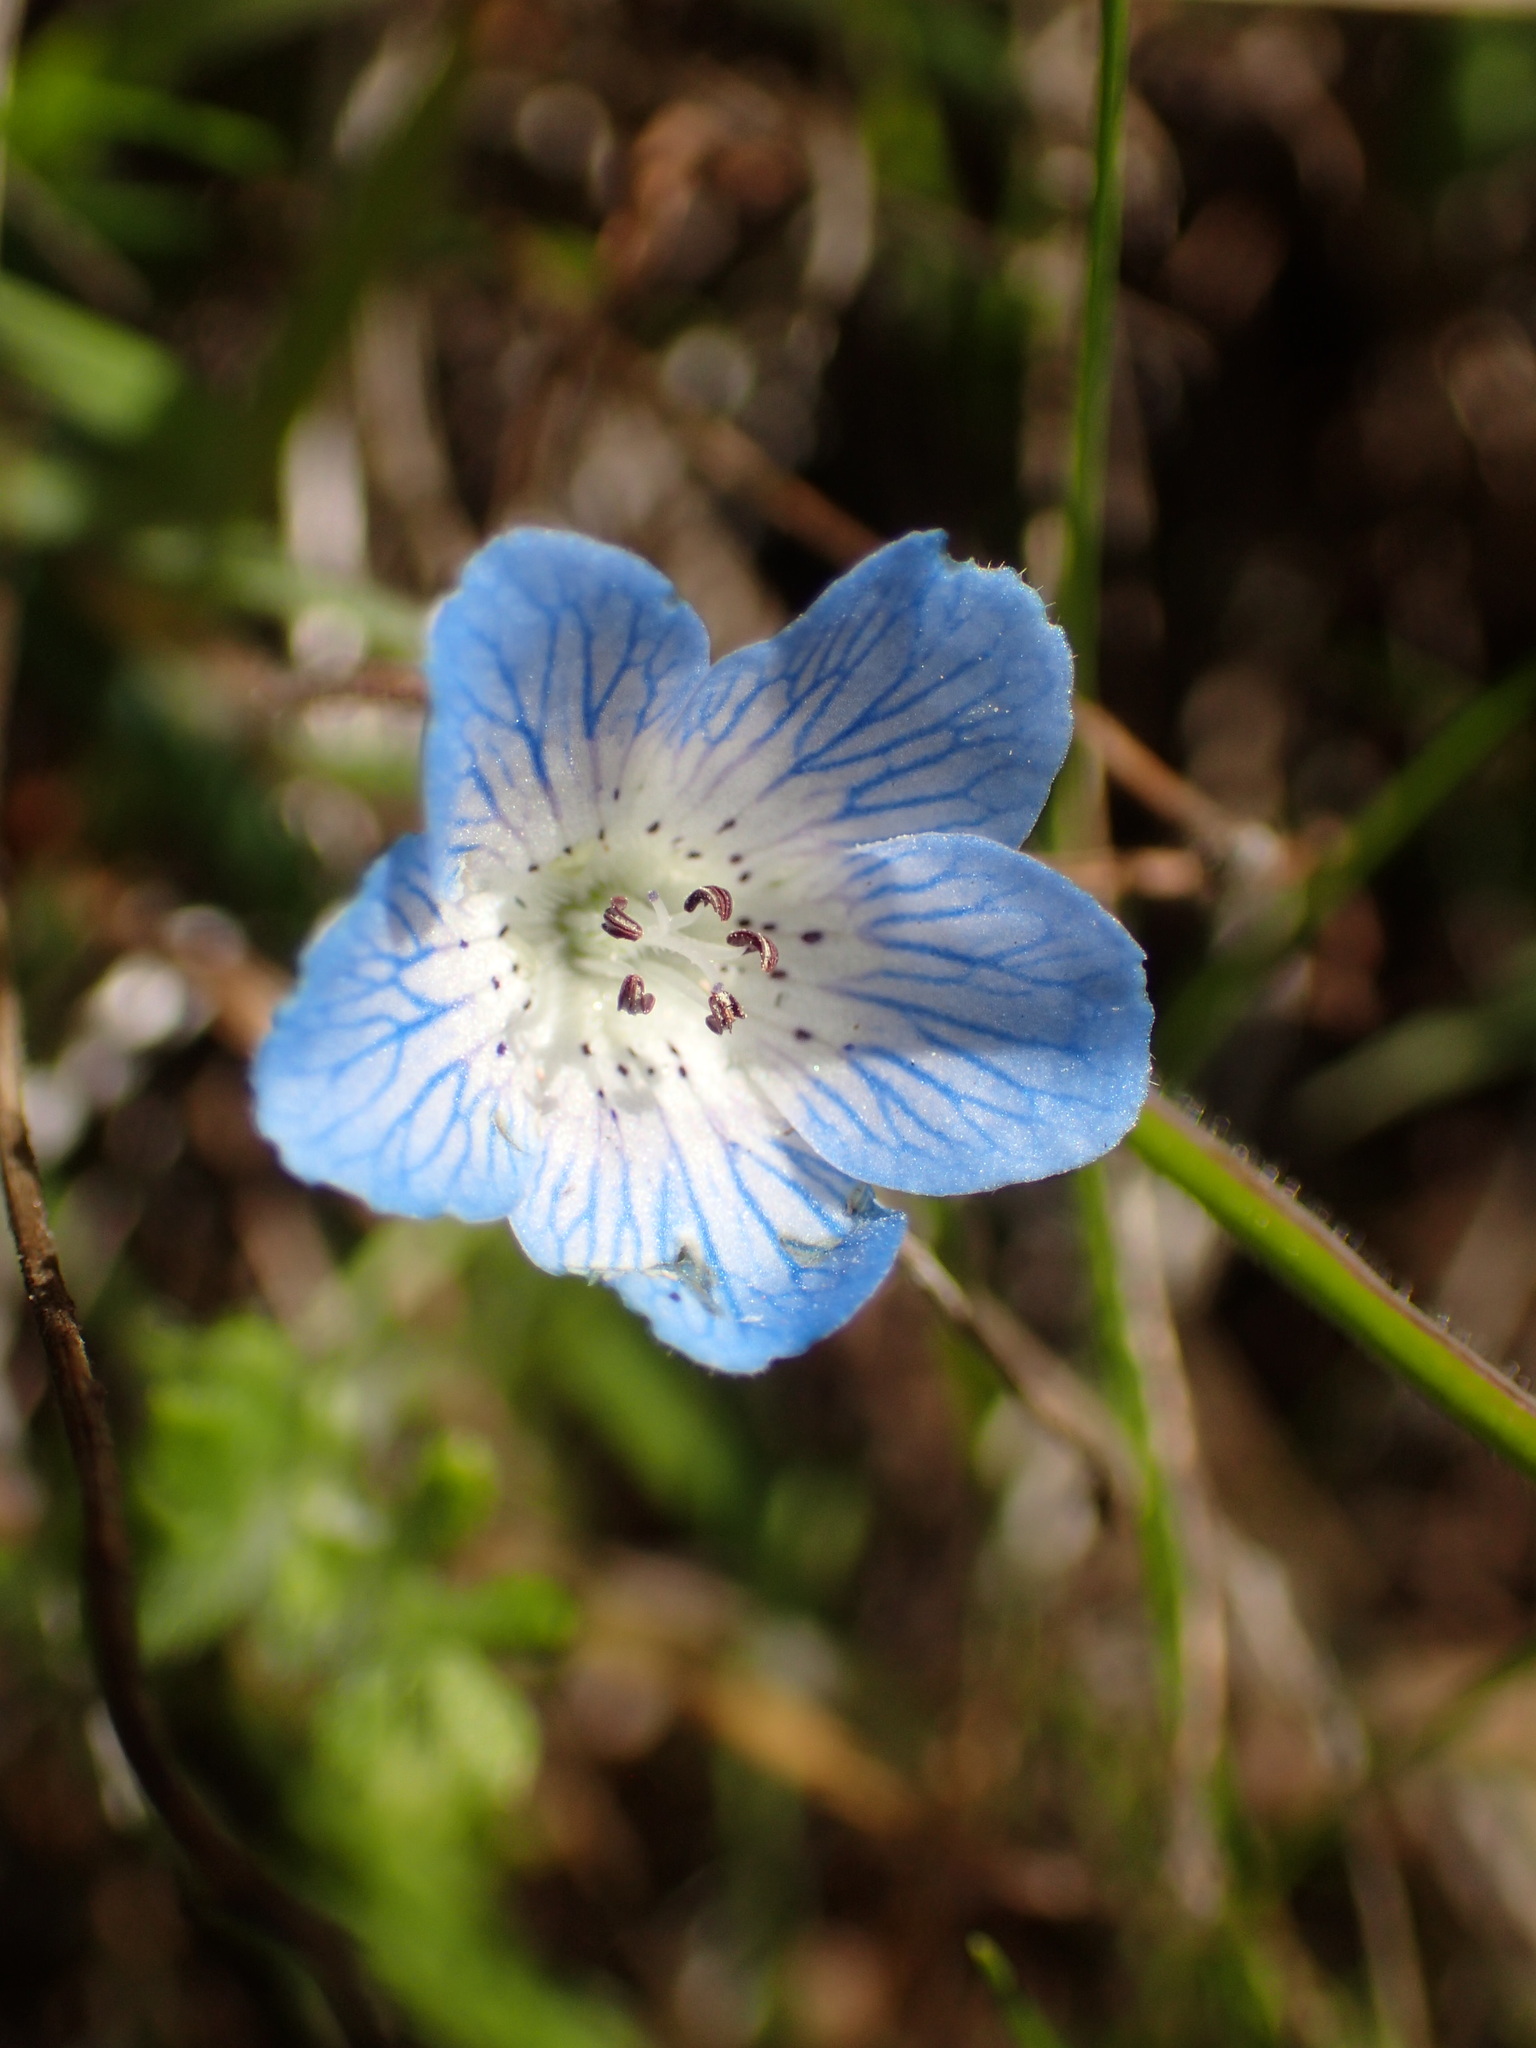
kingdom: Plantae
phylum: Tracheophyta
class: Magnoliopsida
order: Boraginales
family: Hydrophyllaceae
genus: Nemophila
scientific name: Nemophila menziesii
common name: Baby's-blue-eyes
